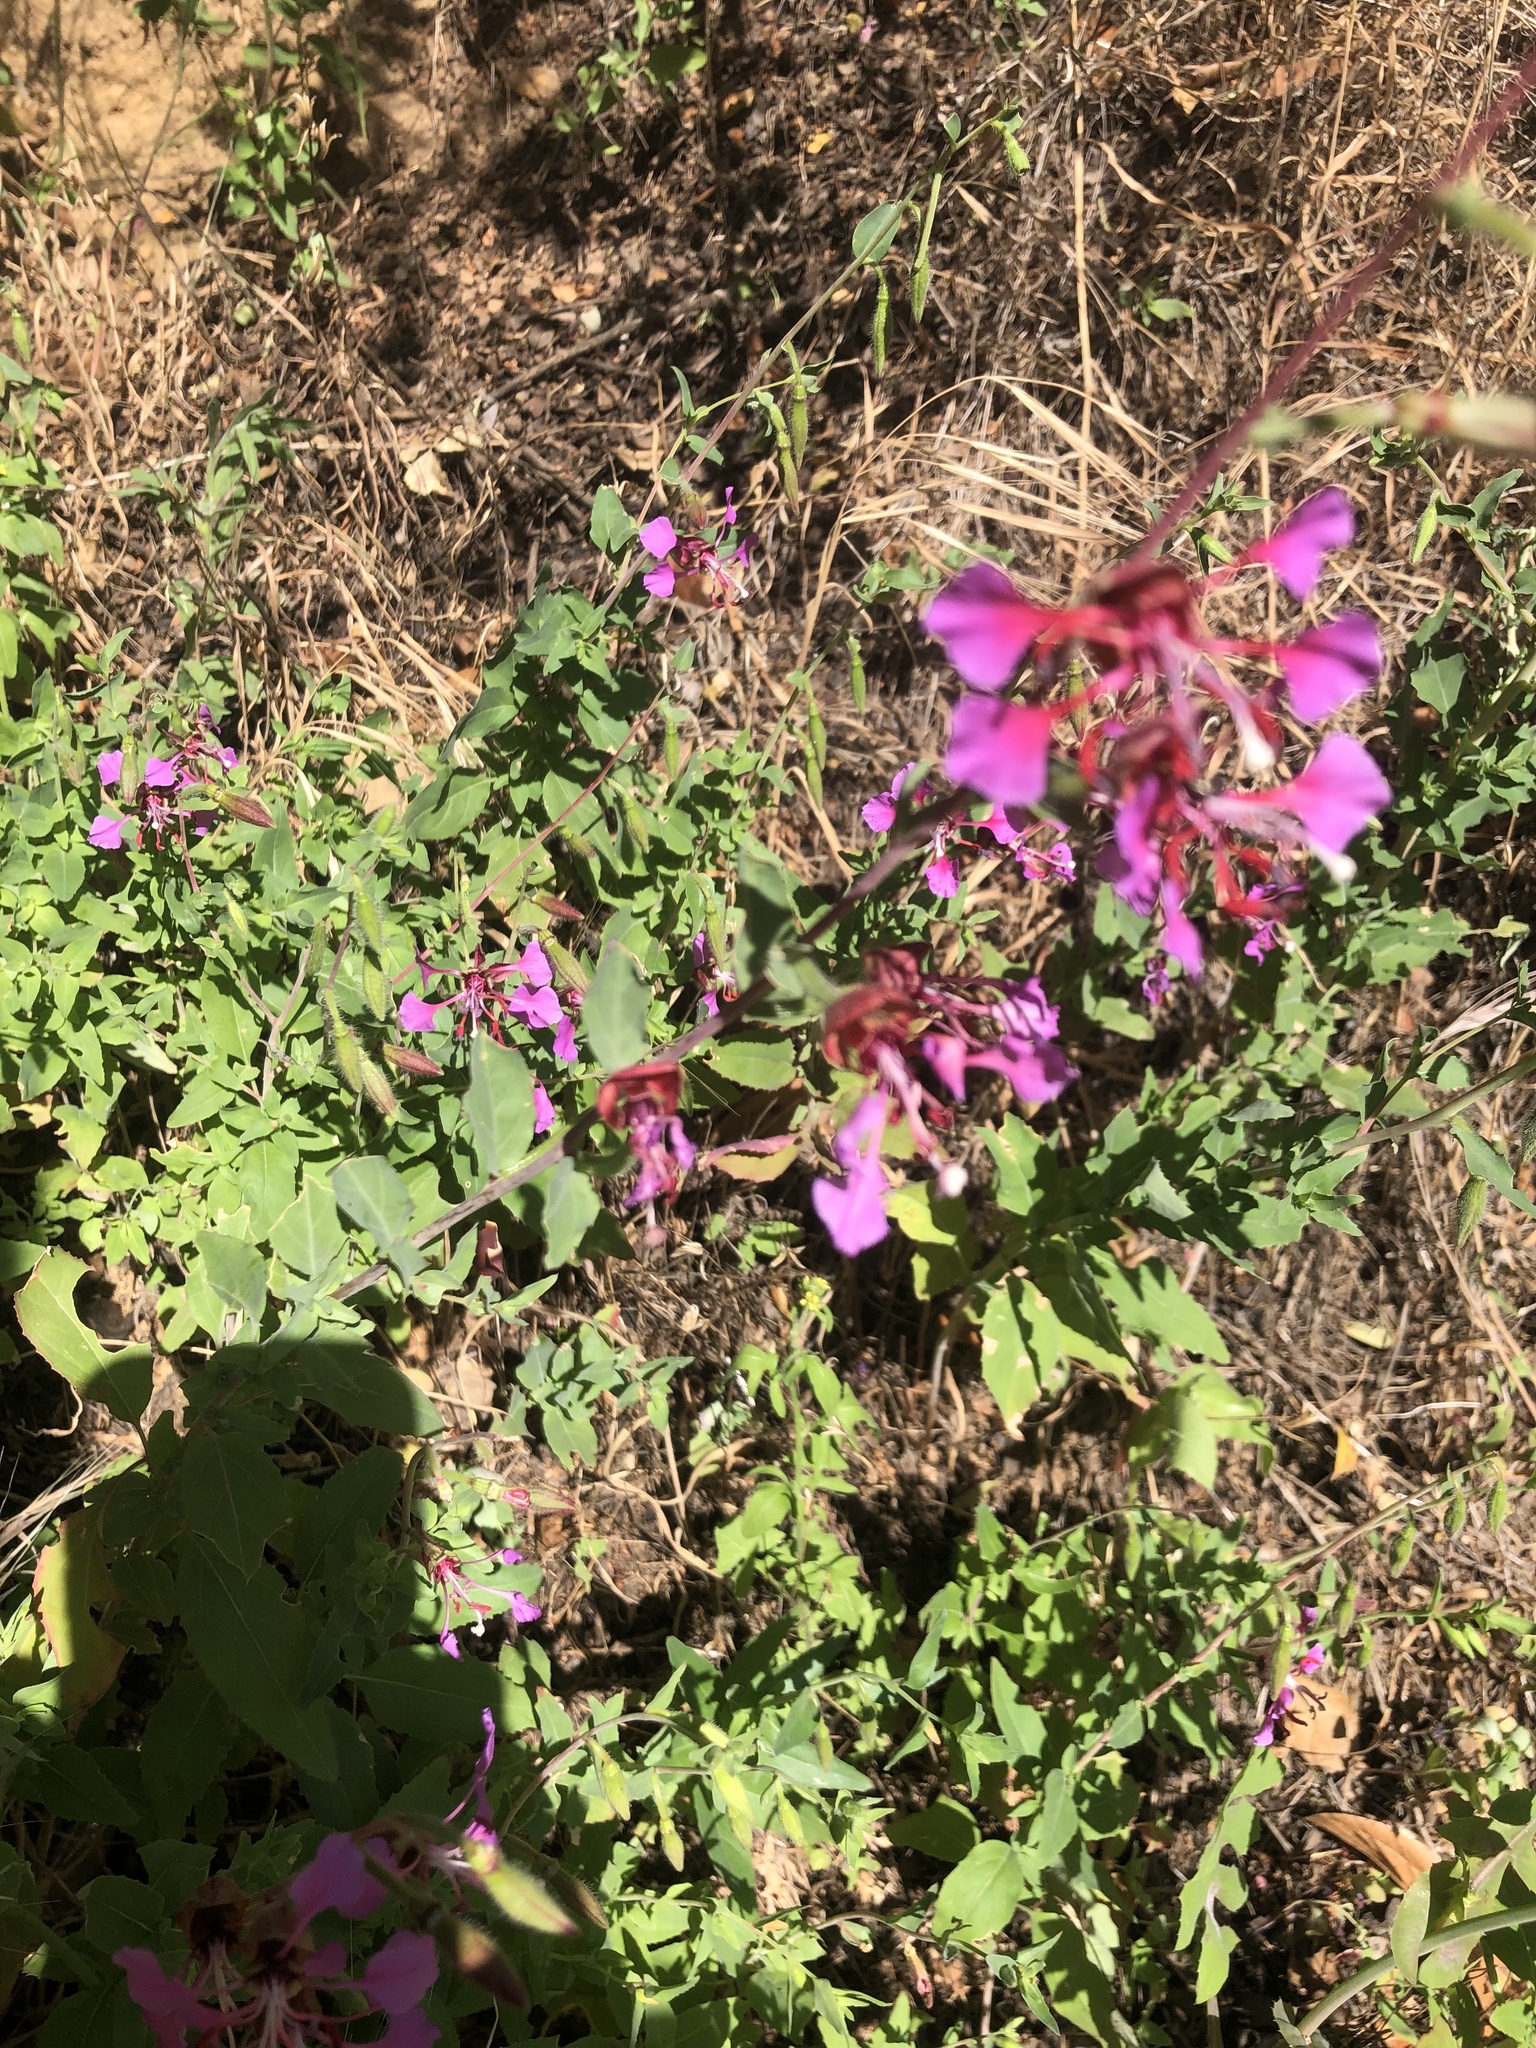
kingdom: Plantae
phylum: Tracheophyta
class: Magnoliopsida
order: Myrtales
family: Onagraceae
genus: Clarkia
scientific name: Clarkia unguiculata
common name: Clarkia
